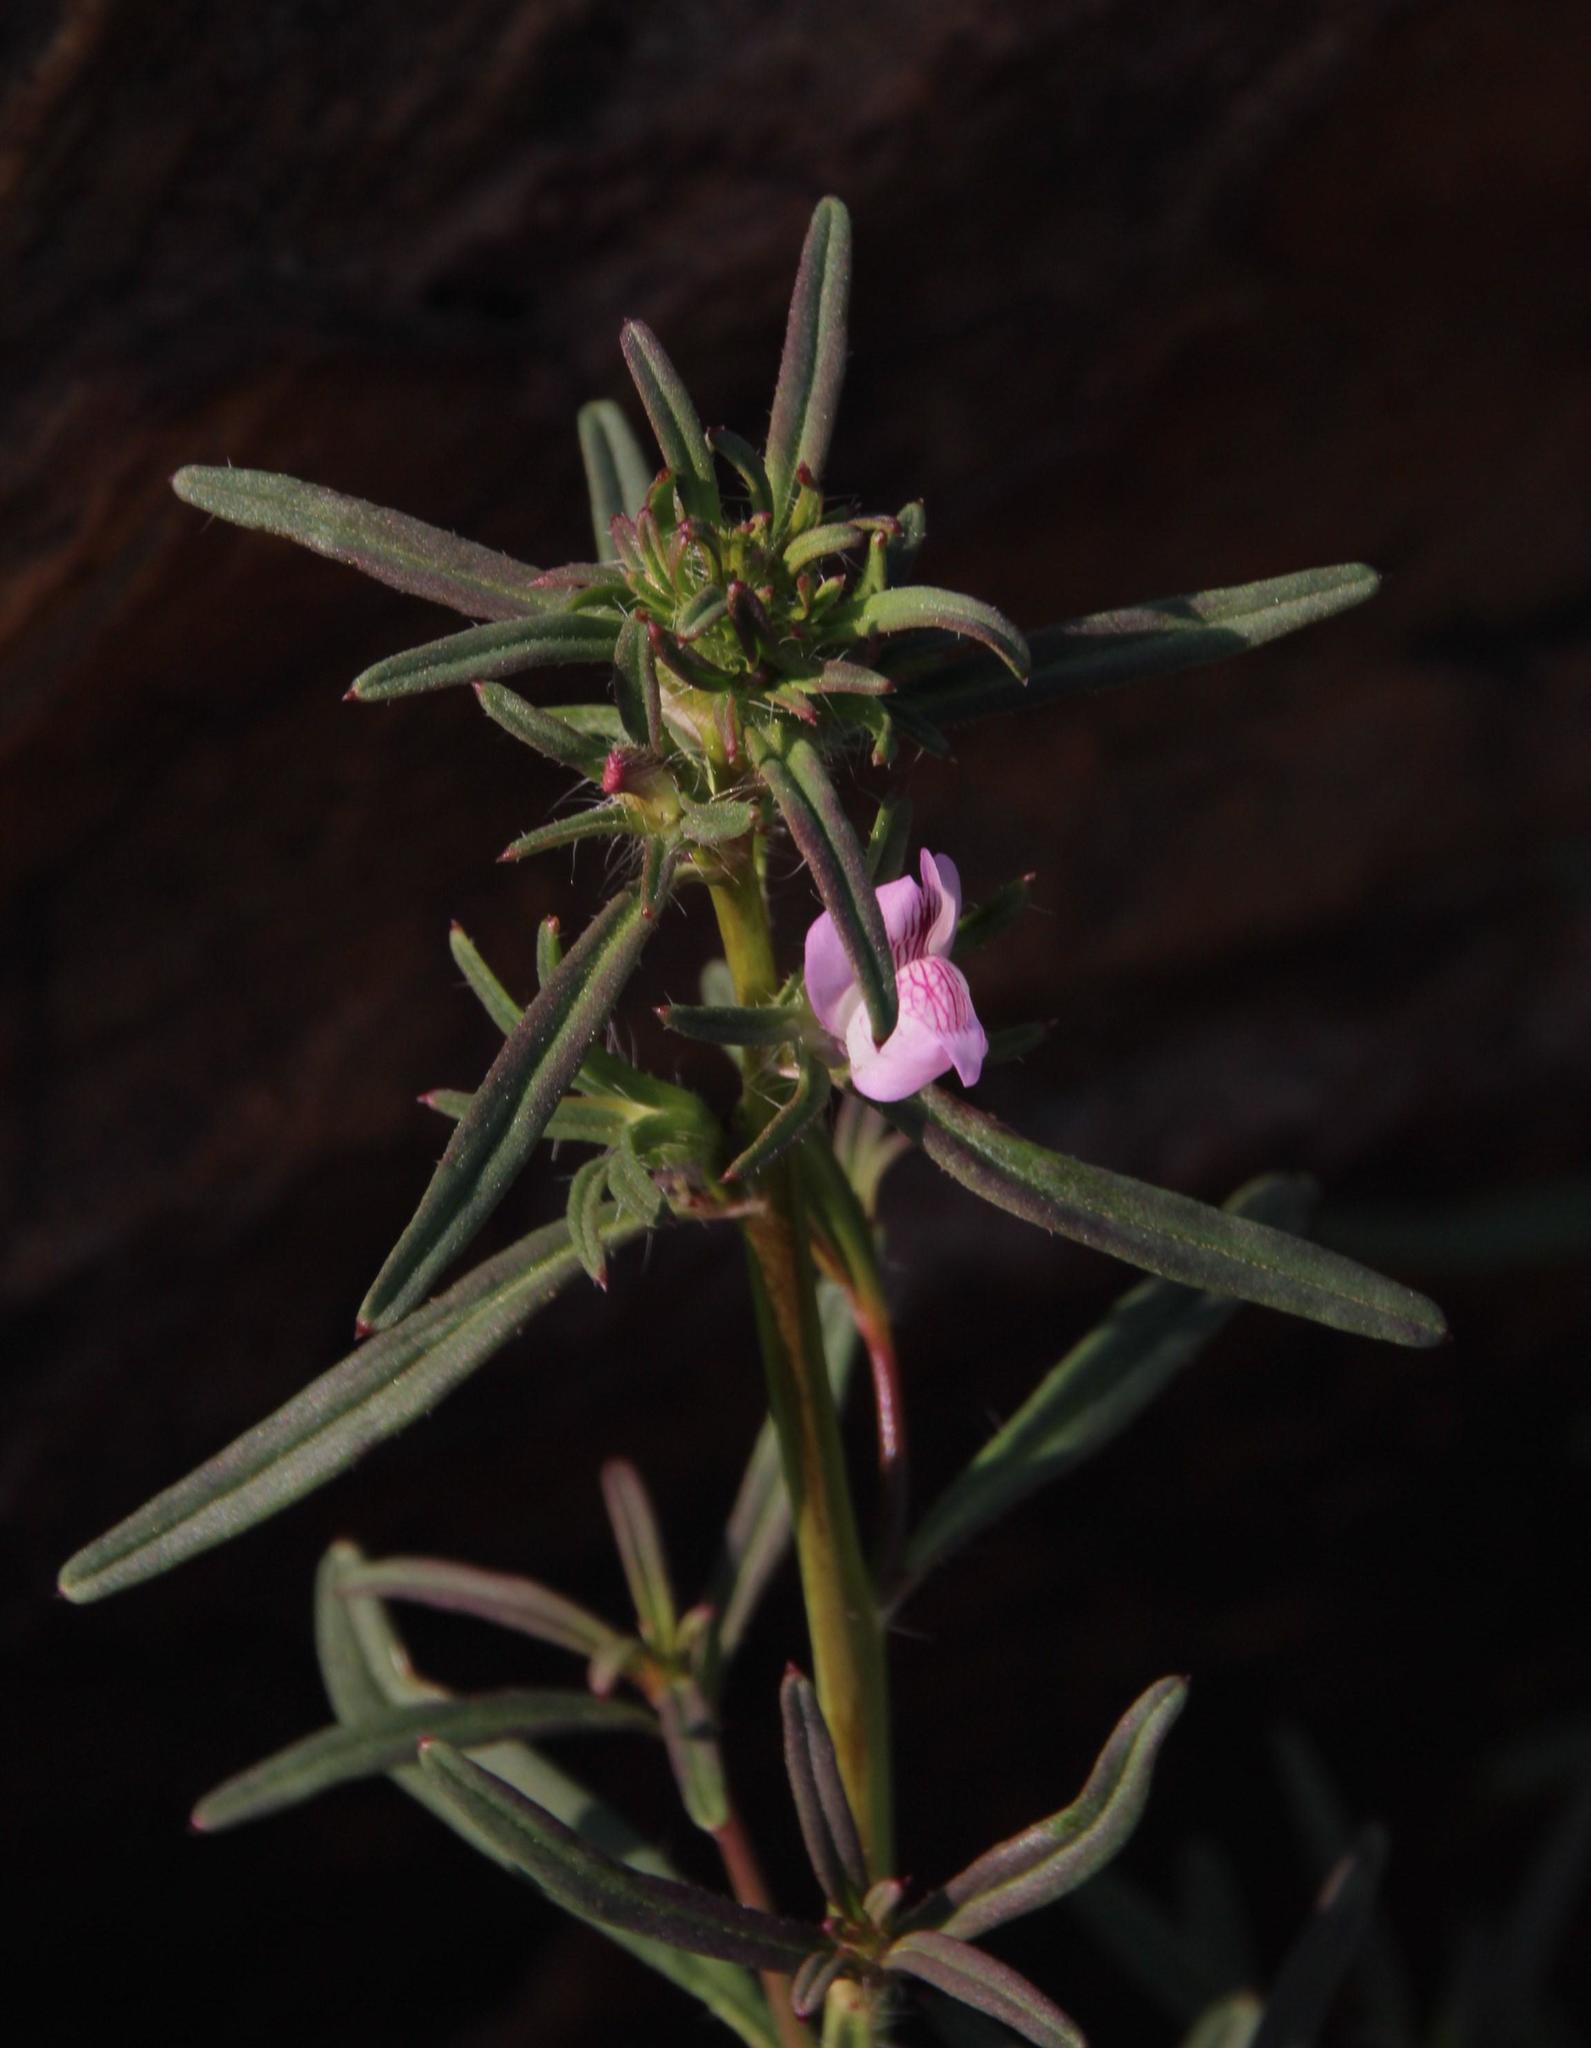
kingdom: Plantae
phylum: Tracheophyta
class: Magnoliopsida
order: Lamiales
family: Plantaginaceae
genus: Misopates
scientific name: Misopates orontium
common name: Weasel's-snout
